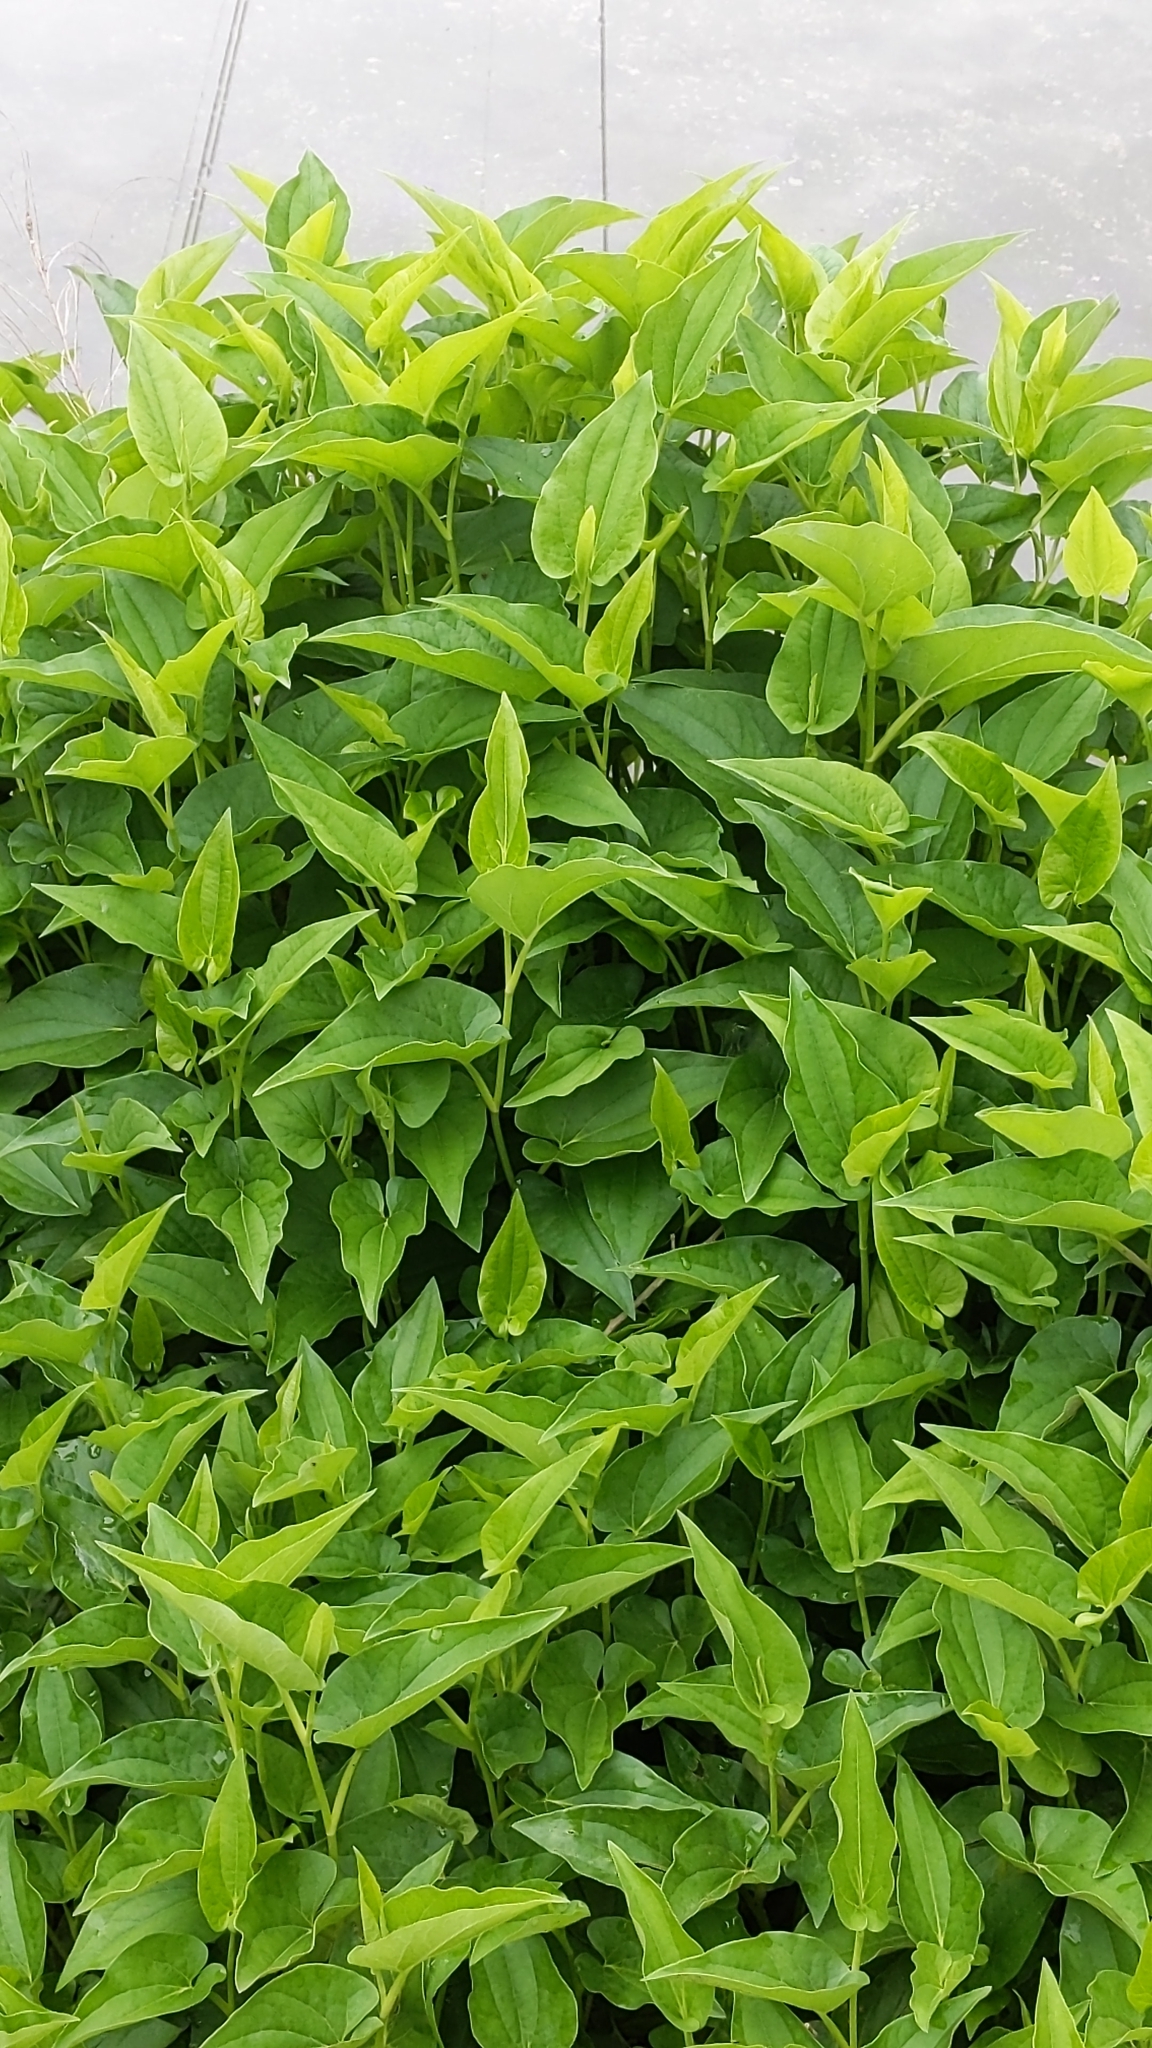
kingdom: Plantae
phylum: Tracheophyta
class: Magnoliopsida
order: Piperales
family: Saururaceae
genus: Saururus
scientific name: Saururus cernuus
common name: Lizard's-tail
